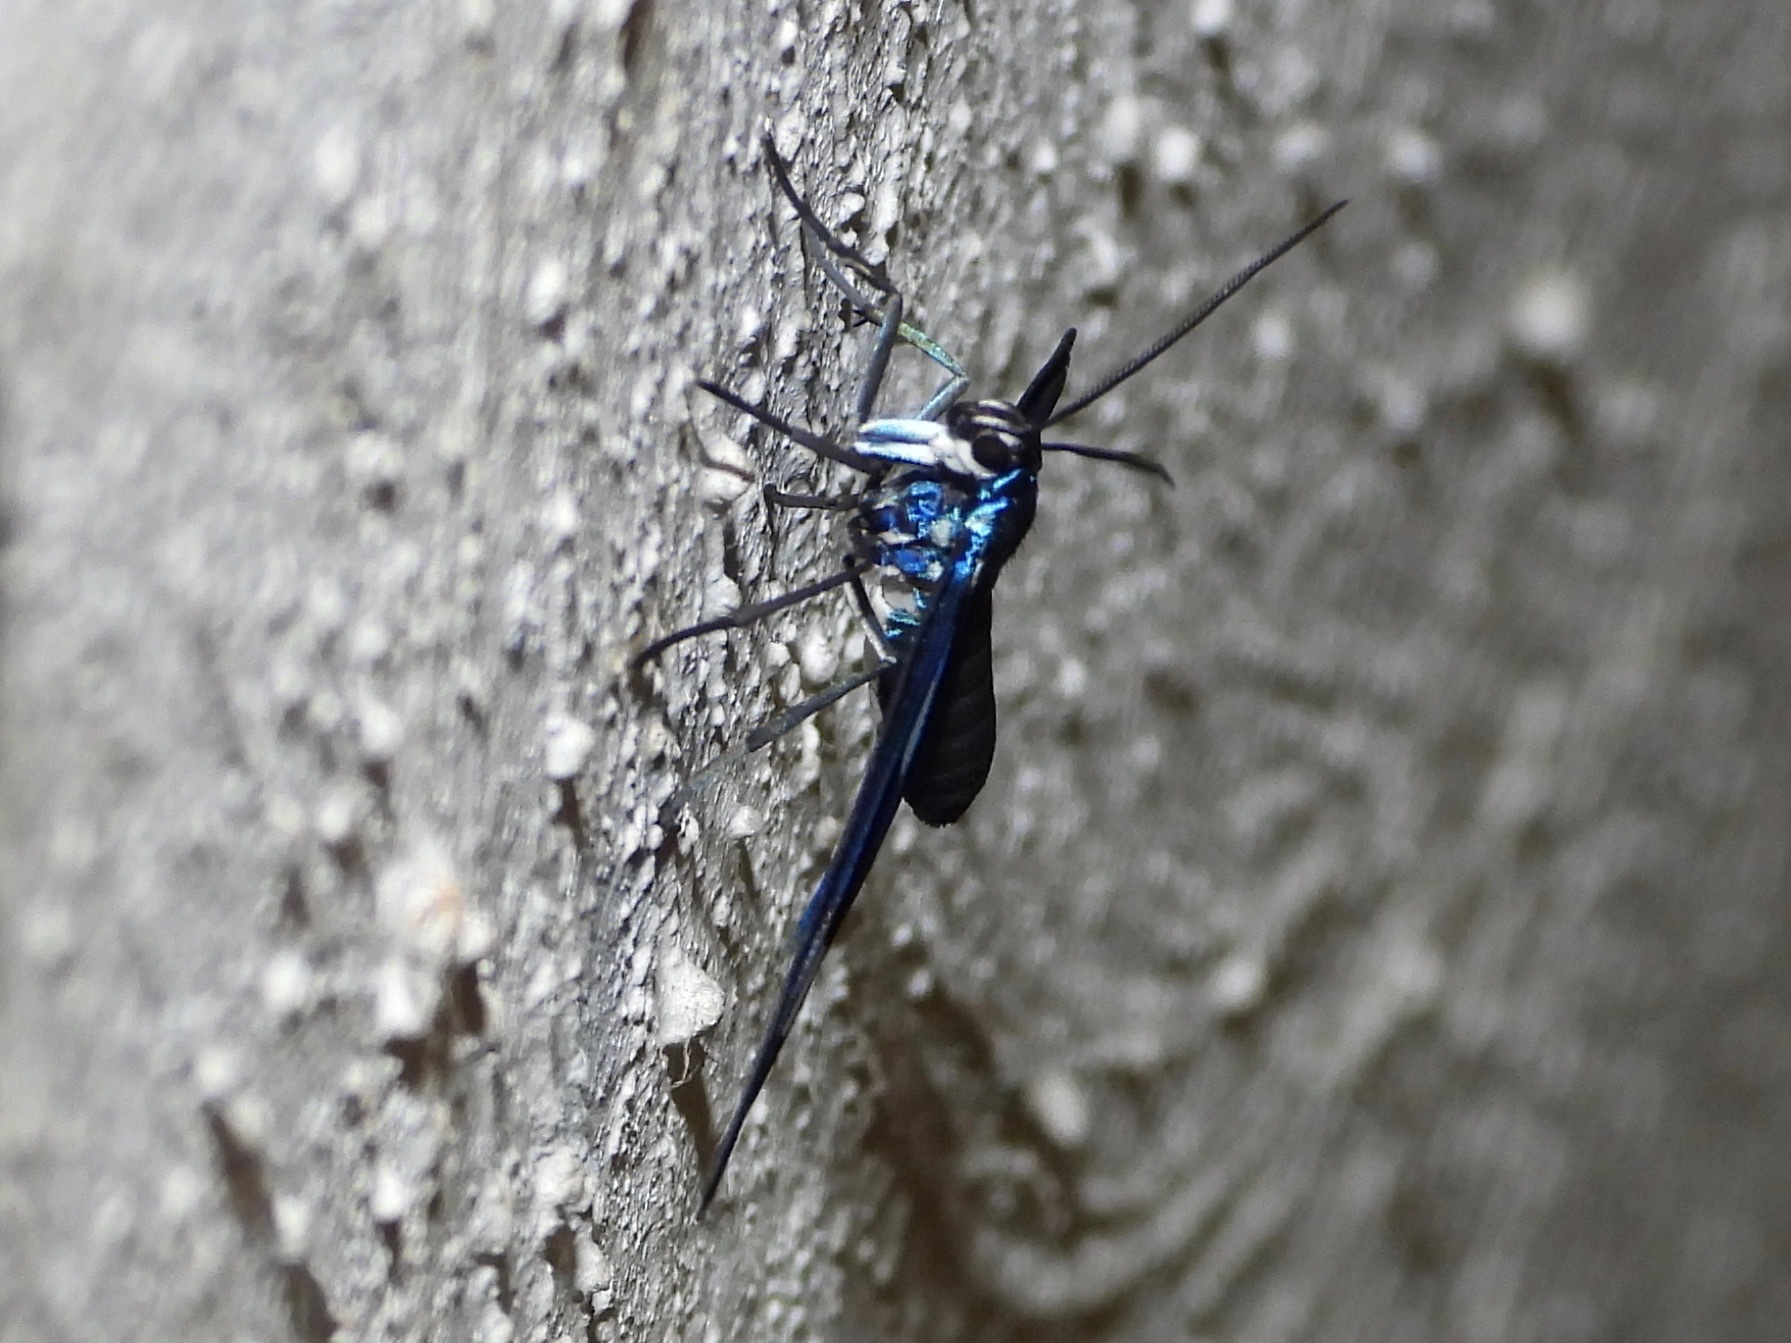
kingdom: Animalia
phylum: Arthropoda
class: Insecta
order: Lepidoptera
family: Erebidae
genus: Cacostatia
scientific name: Cacostatia saphira
